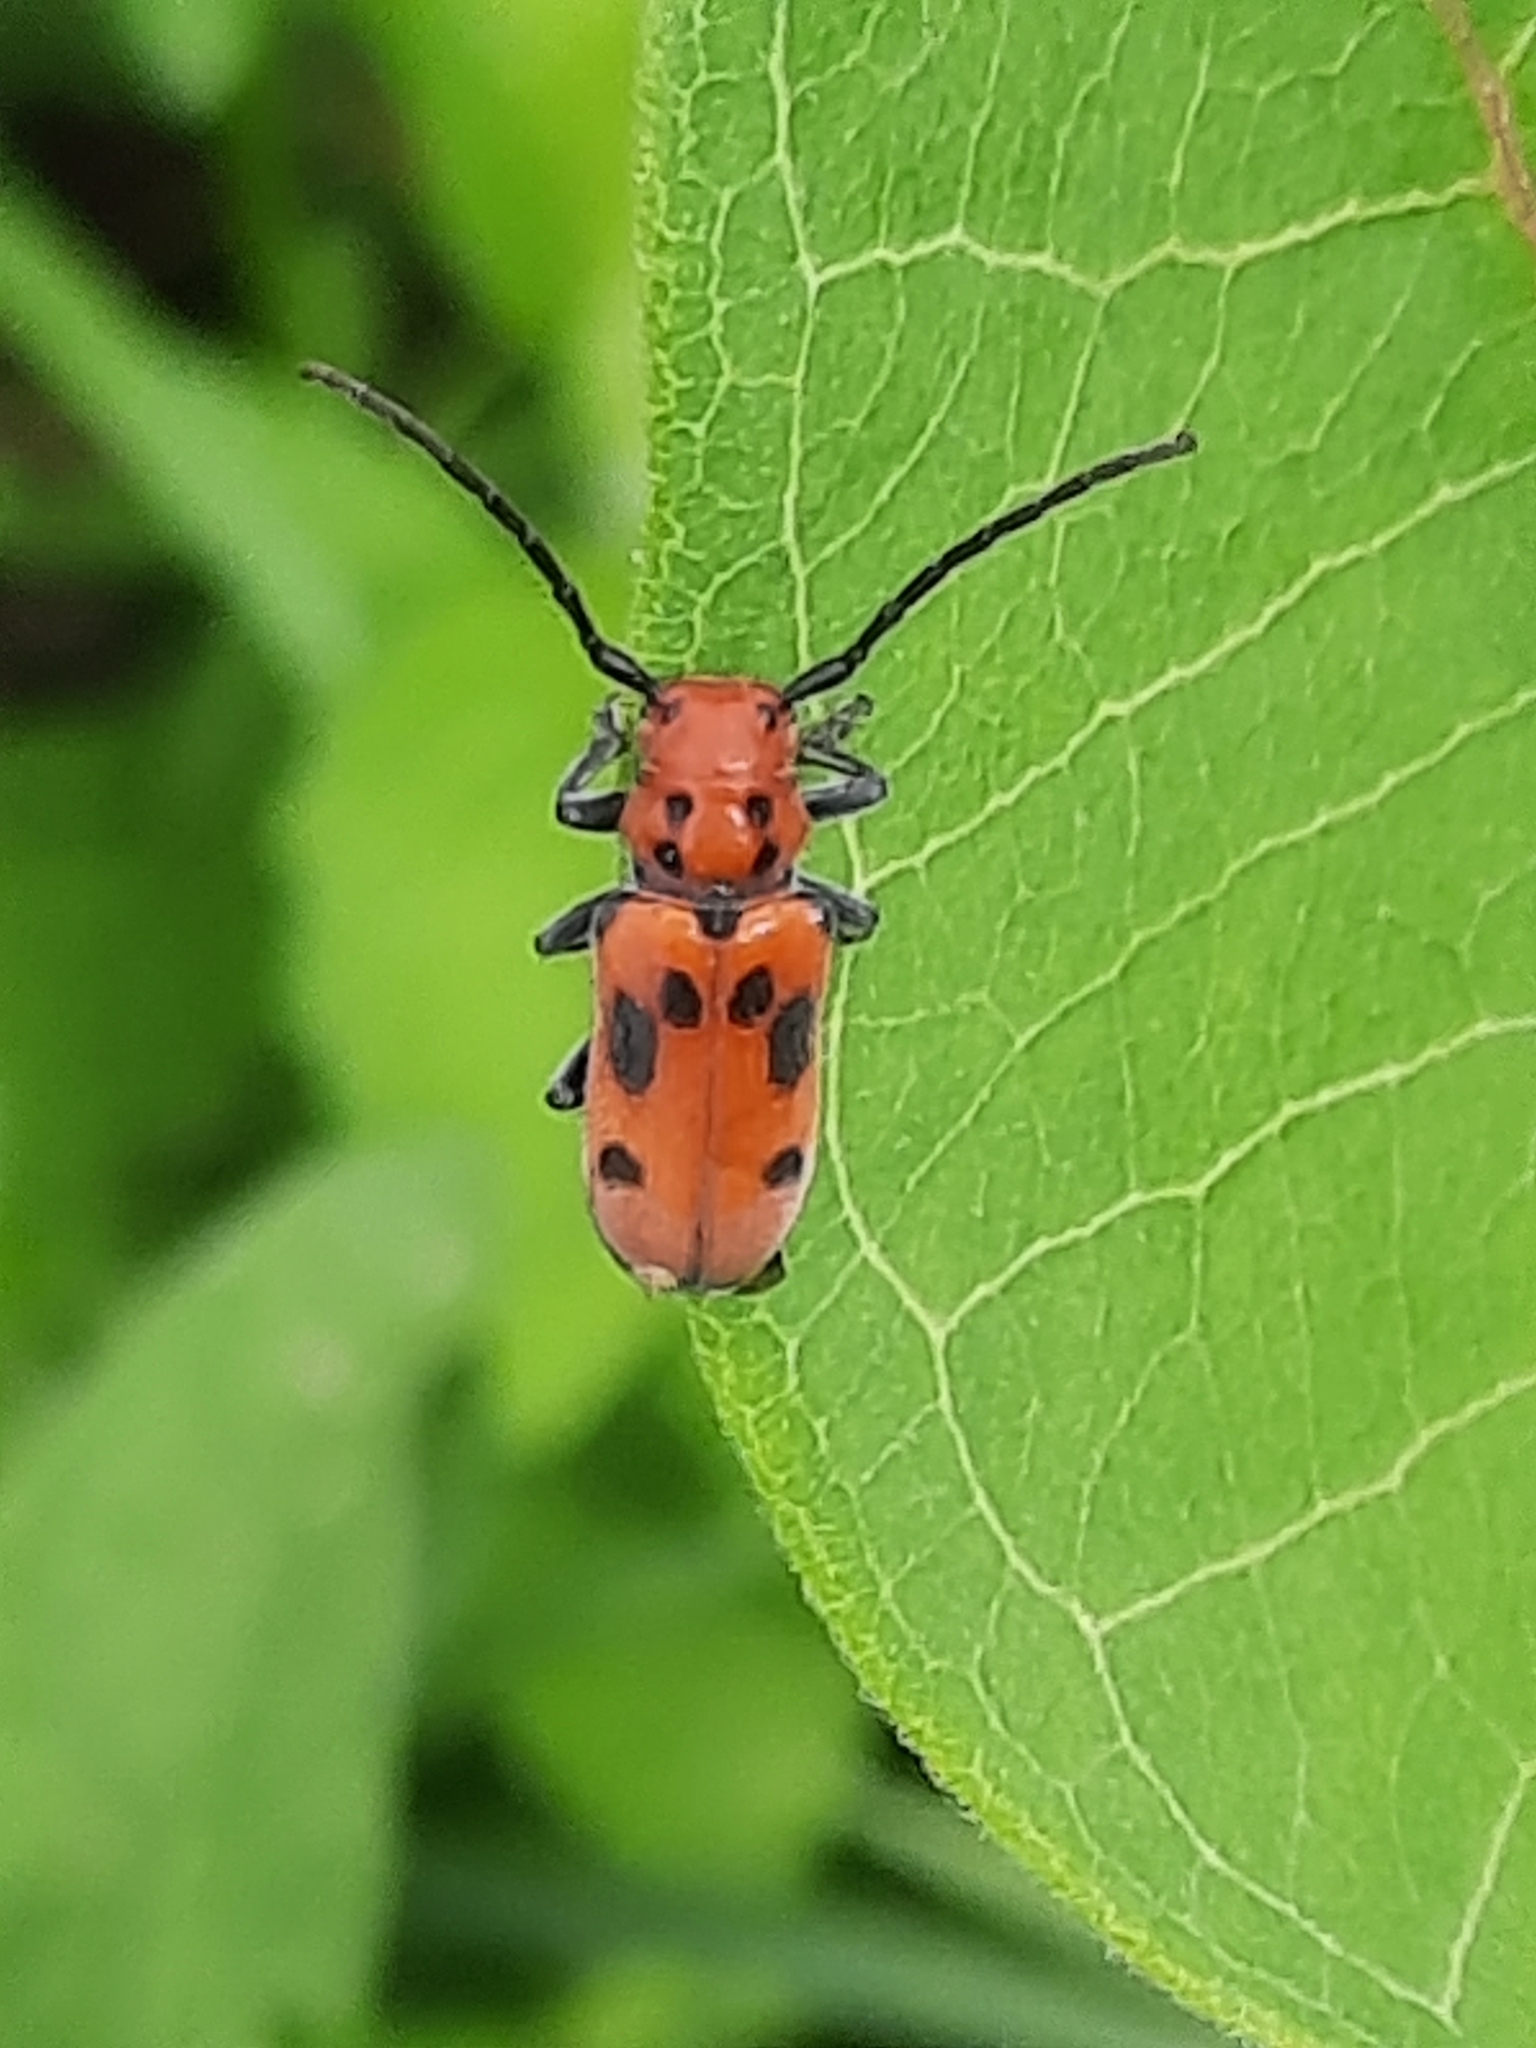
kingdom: Animalia
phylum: Arthropoda
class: Insecta
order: Coleoptera
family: Cerambycidae
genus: Tetraopes
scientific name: Tetraopes tetrophthalmus
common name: Red milkweed beetle
